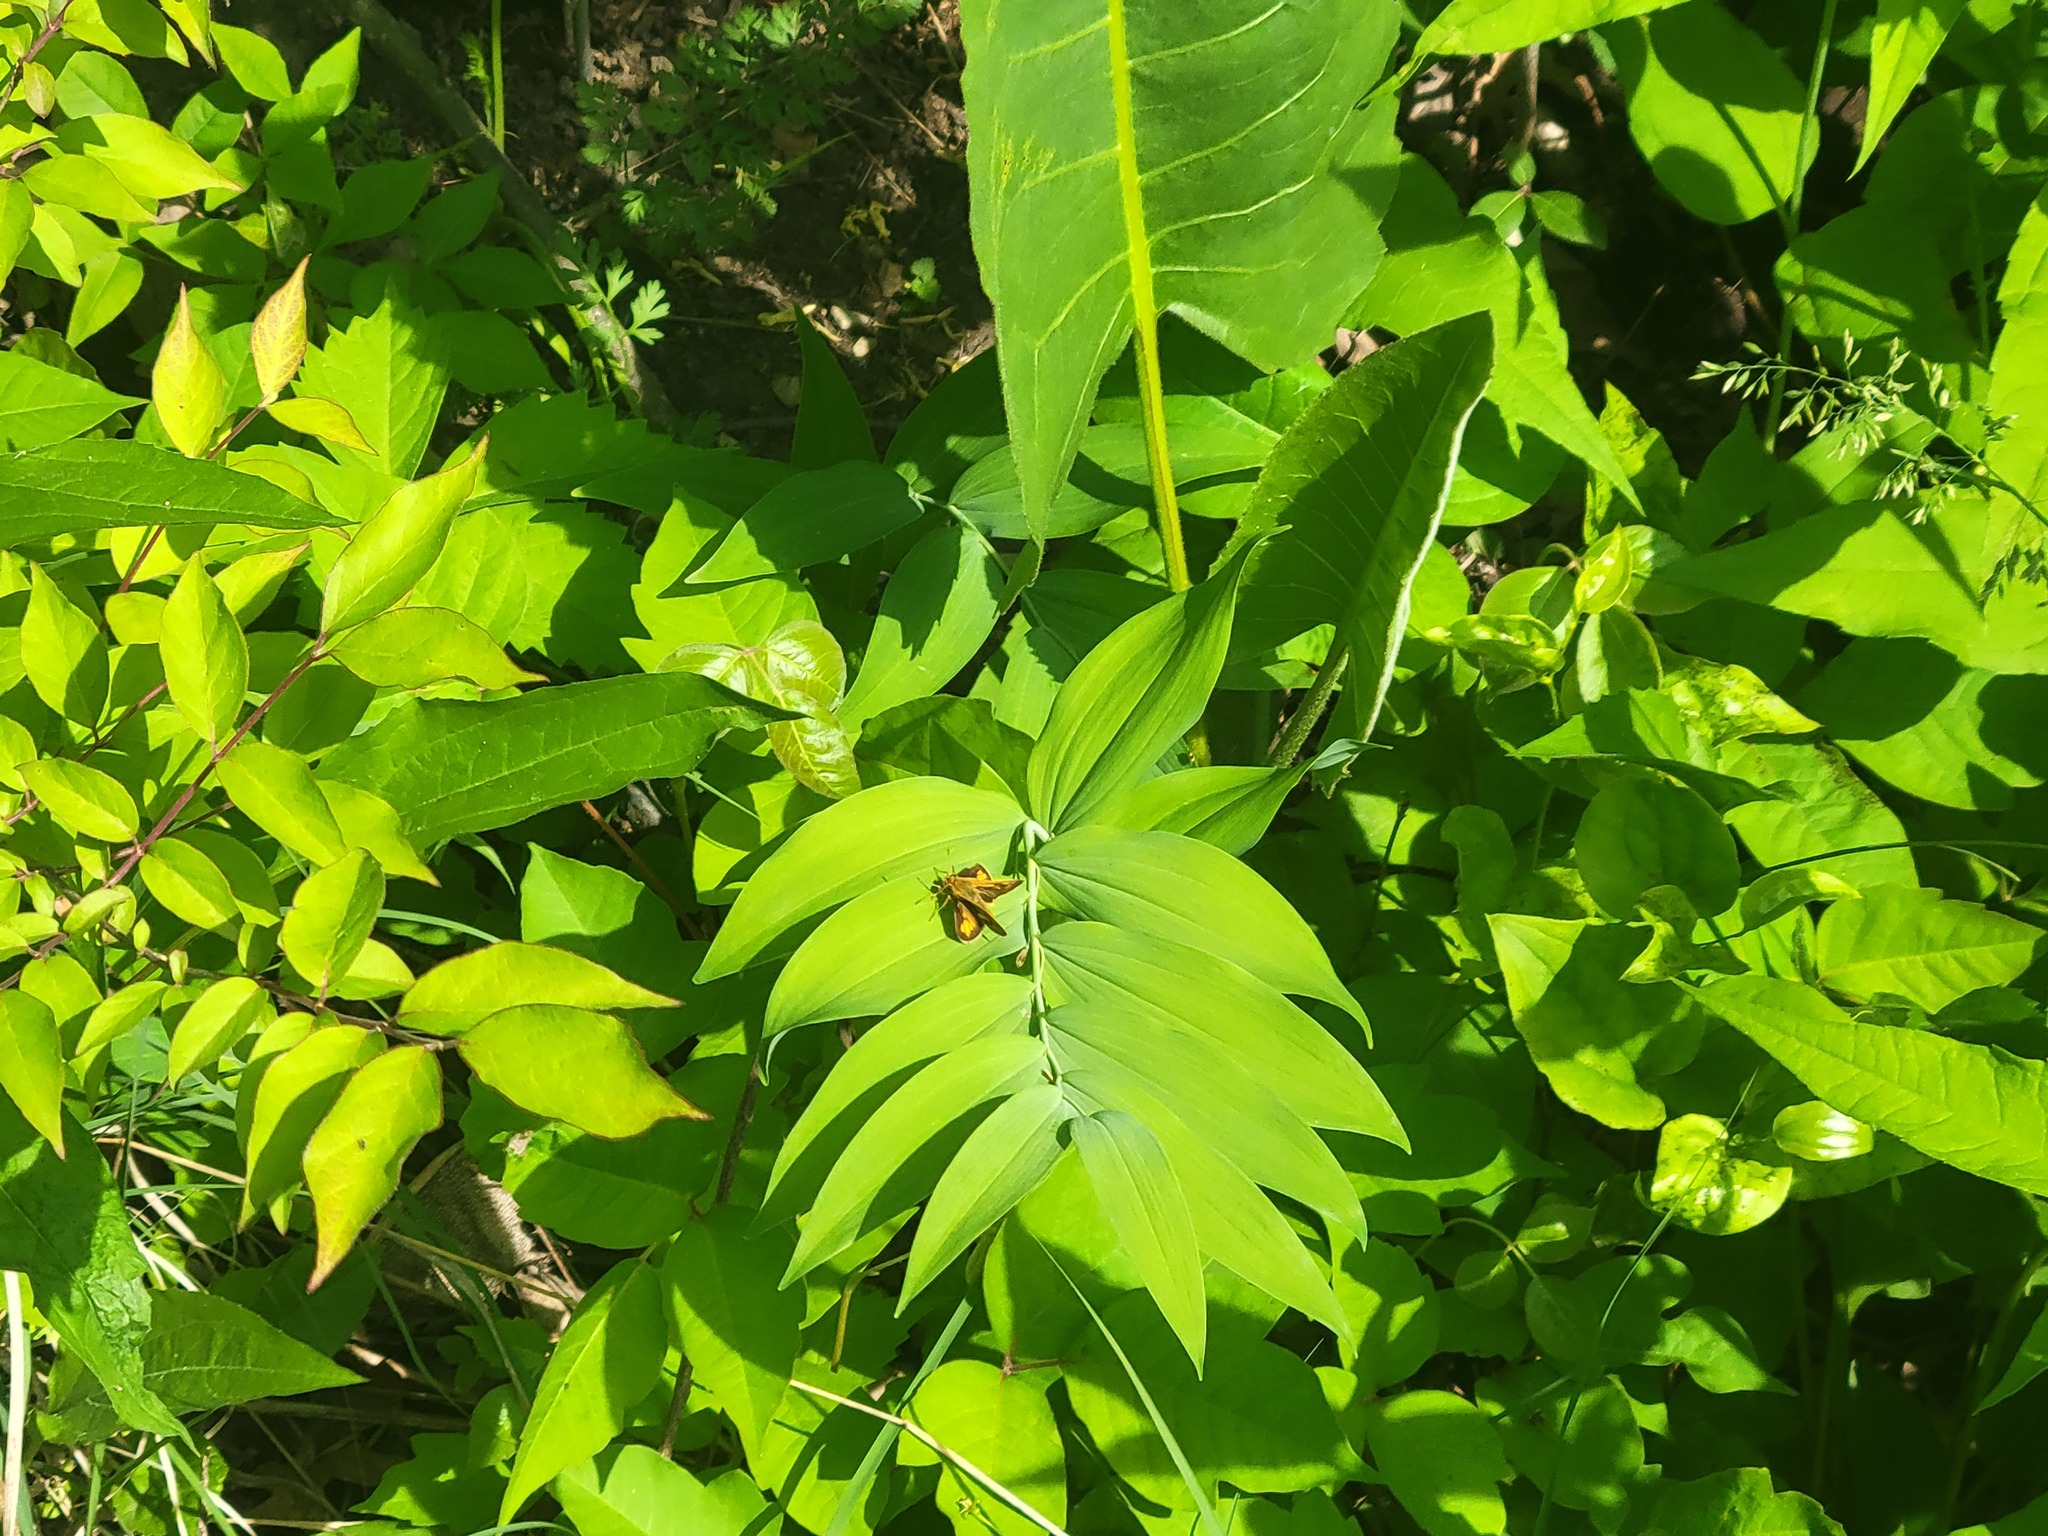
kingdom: Animalia
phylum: Arthropoda
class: Insecta
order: Lepidoptera
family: Hesperiidae
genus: Polites
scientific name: Polites coras
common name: Peck's skipper
